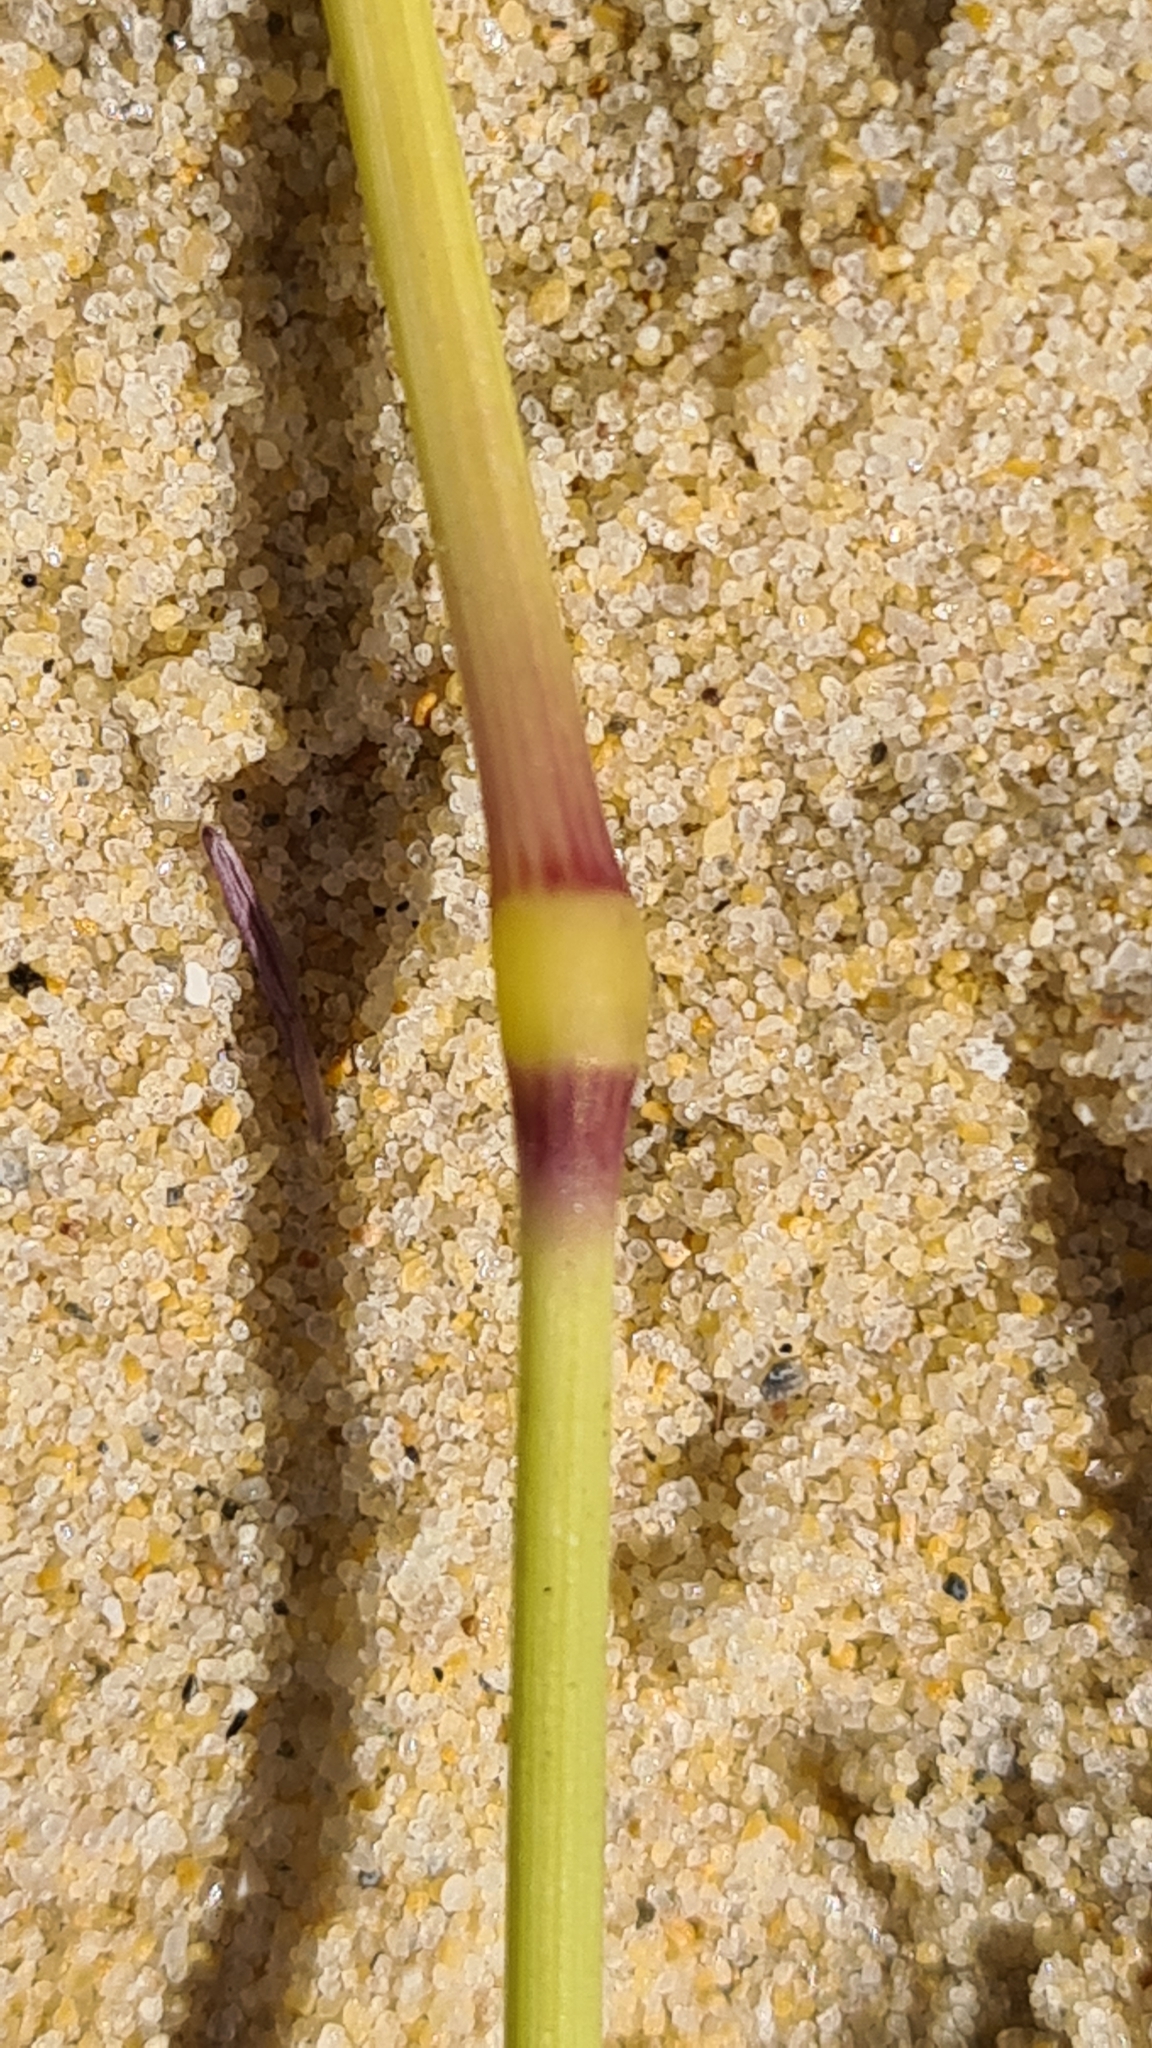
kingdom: Plantae
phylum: Tracheophyta
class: Liliopsida
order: Poales
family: Poaceae
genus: Poa
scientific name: Poa billardierei
